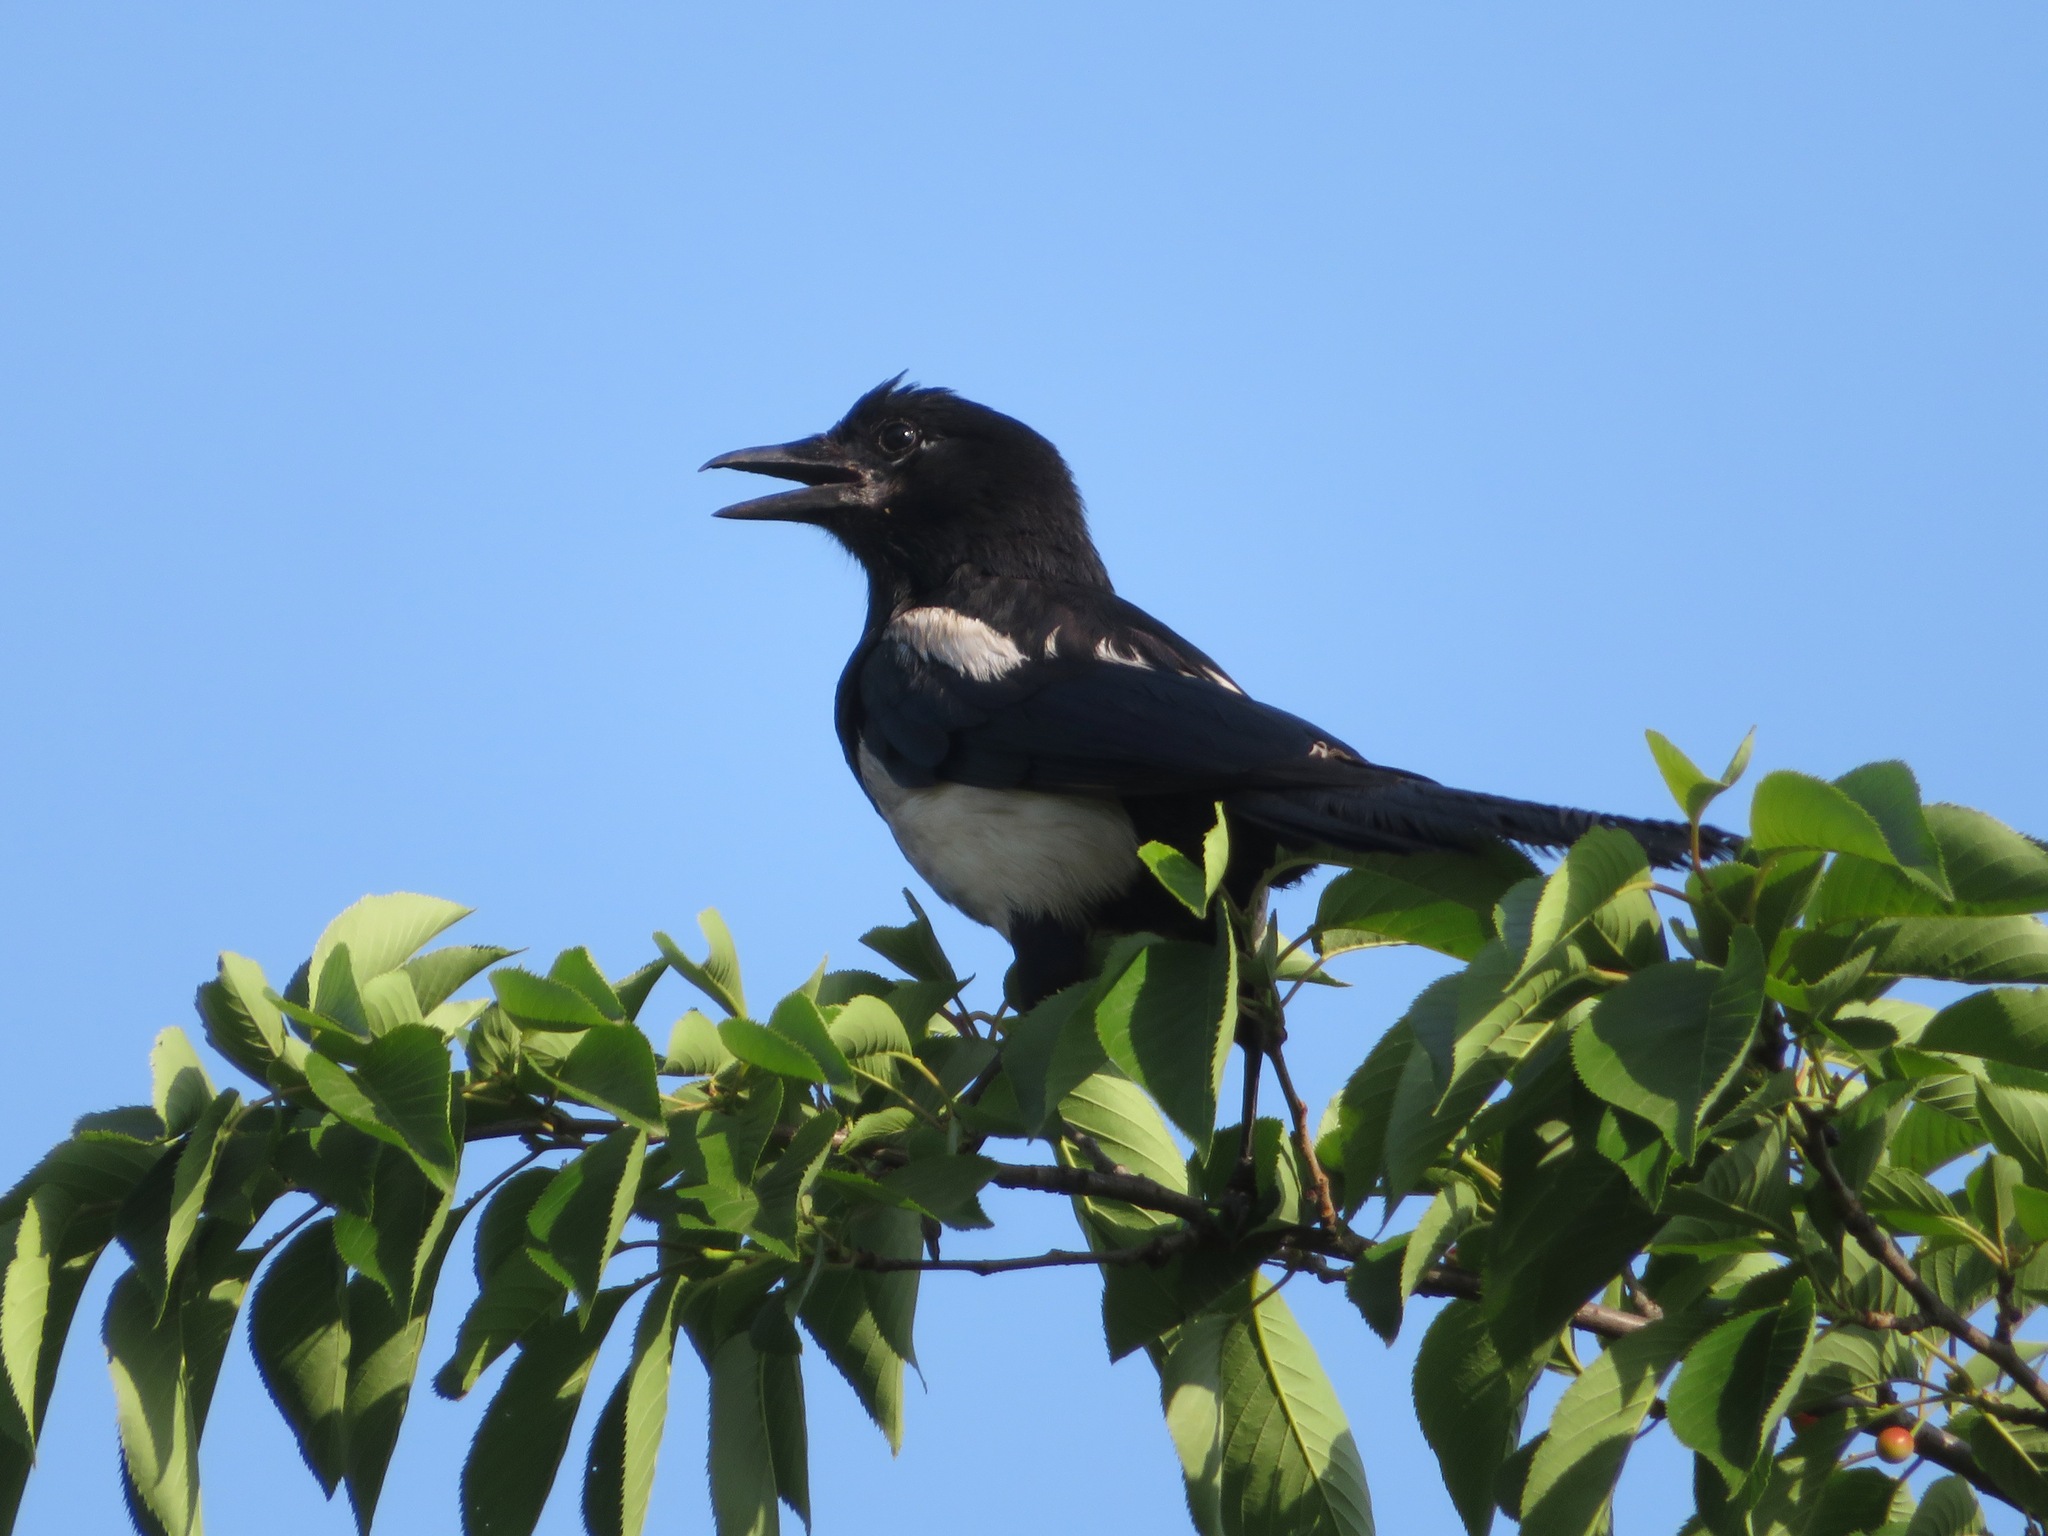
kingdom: Animalia
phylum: Chordata
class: Aves
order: Passeriformes
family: Corvidae
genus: Pica
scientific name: Pica serica
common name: Oriental magpie
